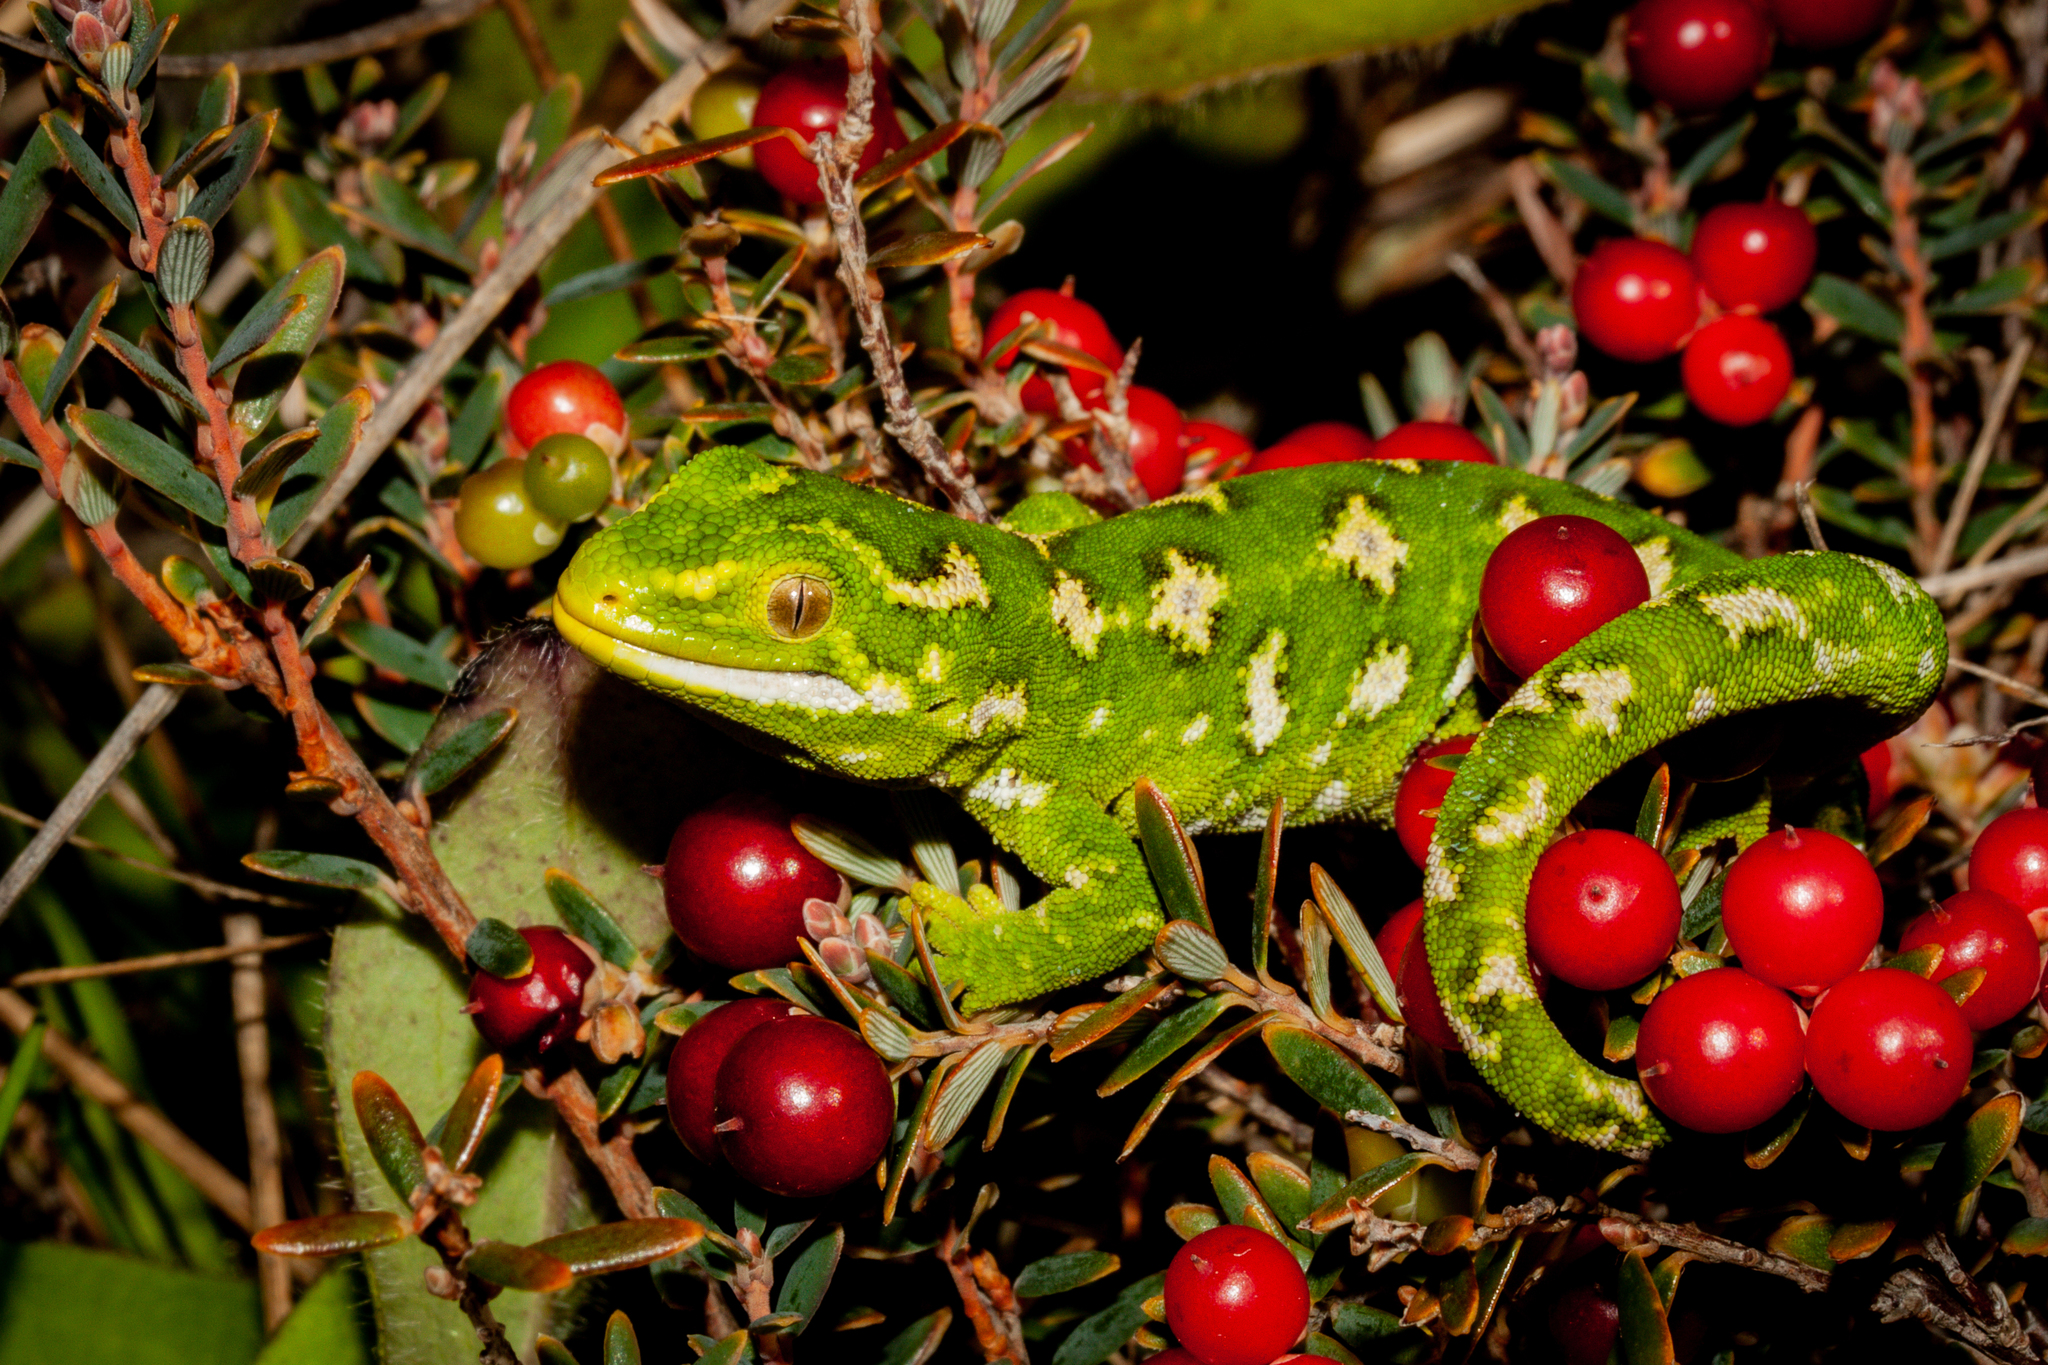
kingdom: Animalia
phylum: Chordata
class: Squamata
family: Diplodactylidae
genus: Naultinus
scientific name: Naultinus gemmeus
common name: Jewelled gecko
